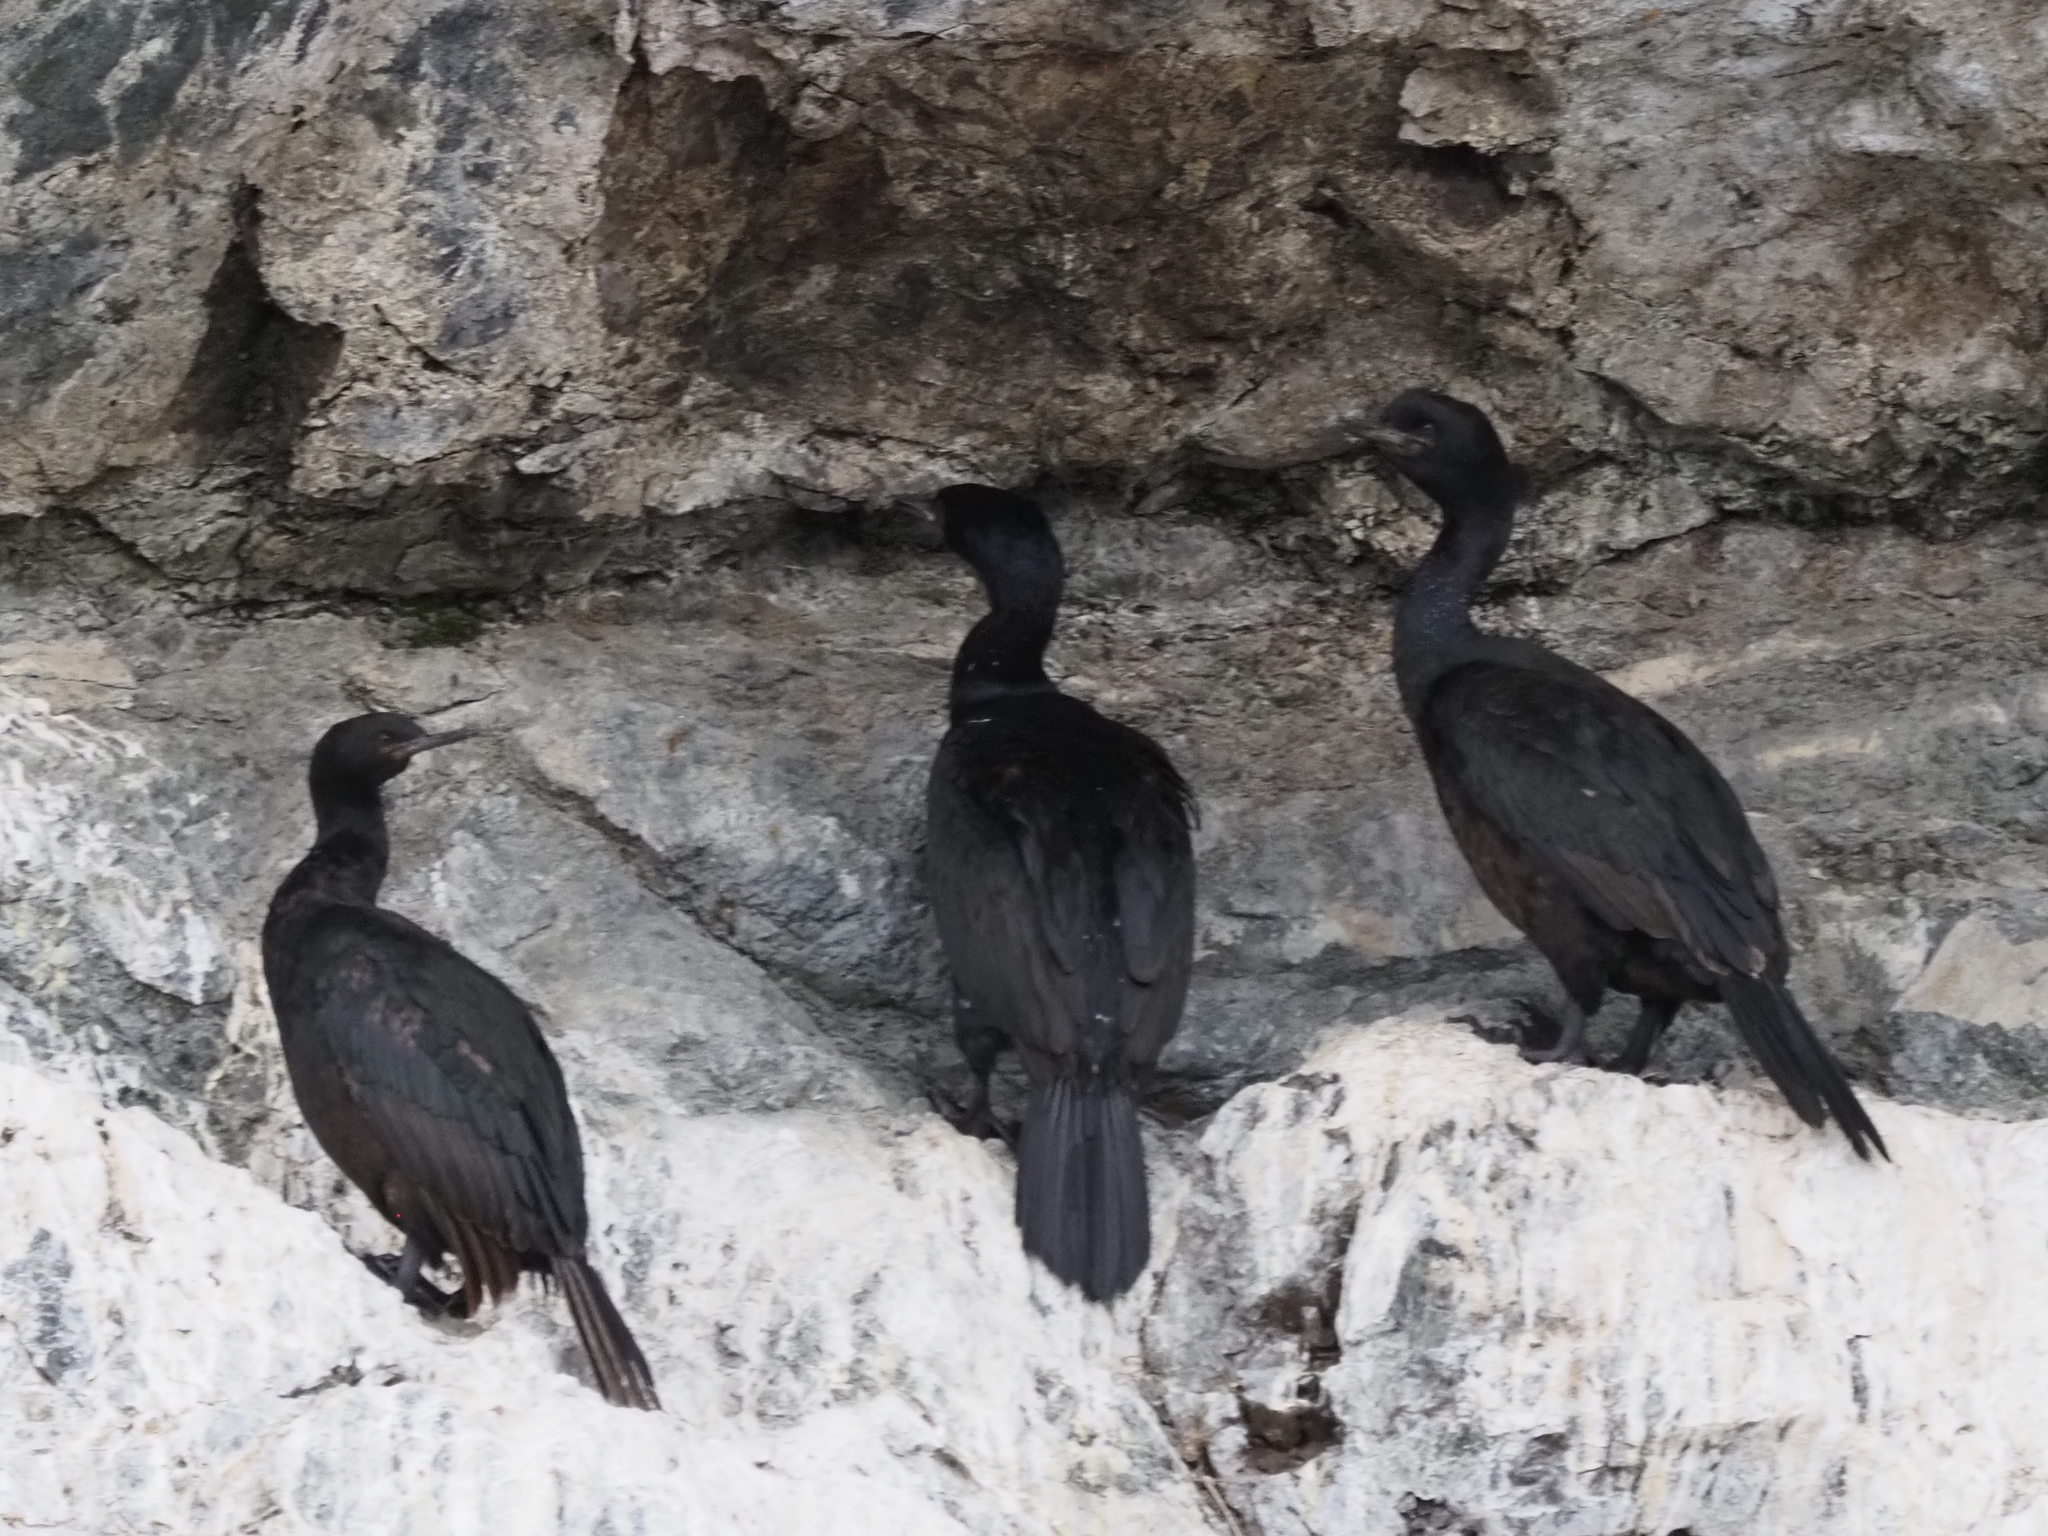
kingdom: Animalia
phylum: Chordata
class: Aves
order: Suliformes
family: Phalacrocoracidae
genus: Phalacrocorax
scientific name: Phalacrocorax pelagicus
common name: Pelagic cormorant
